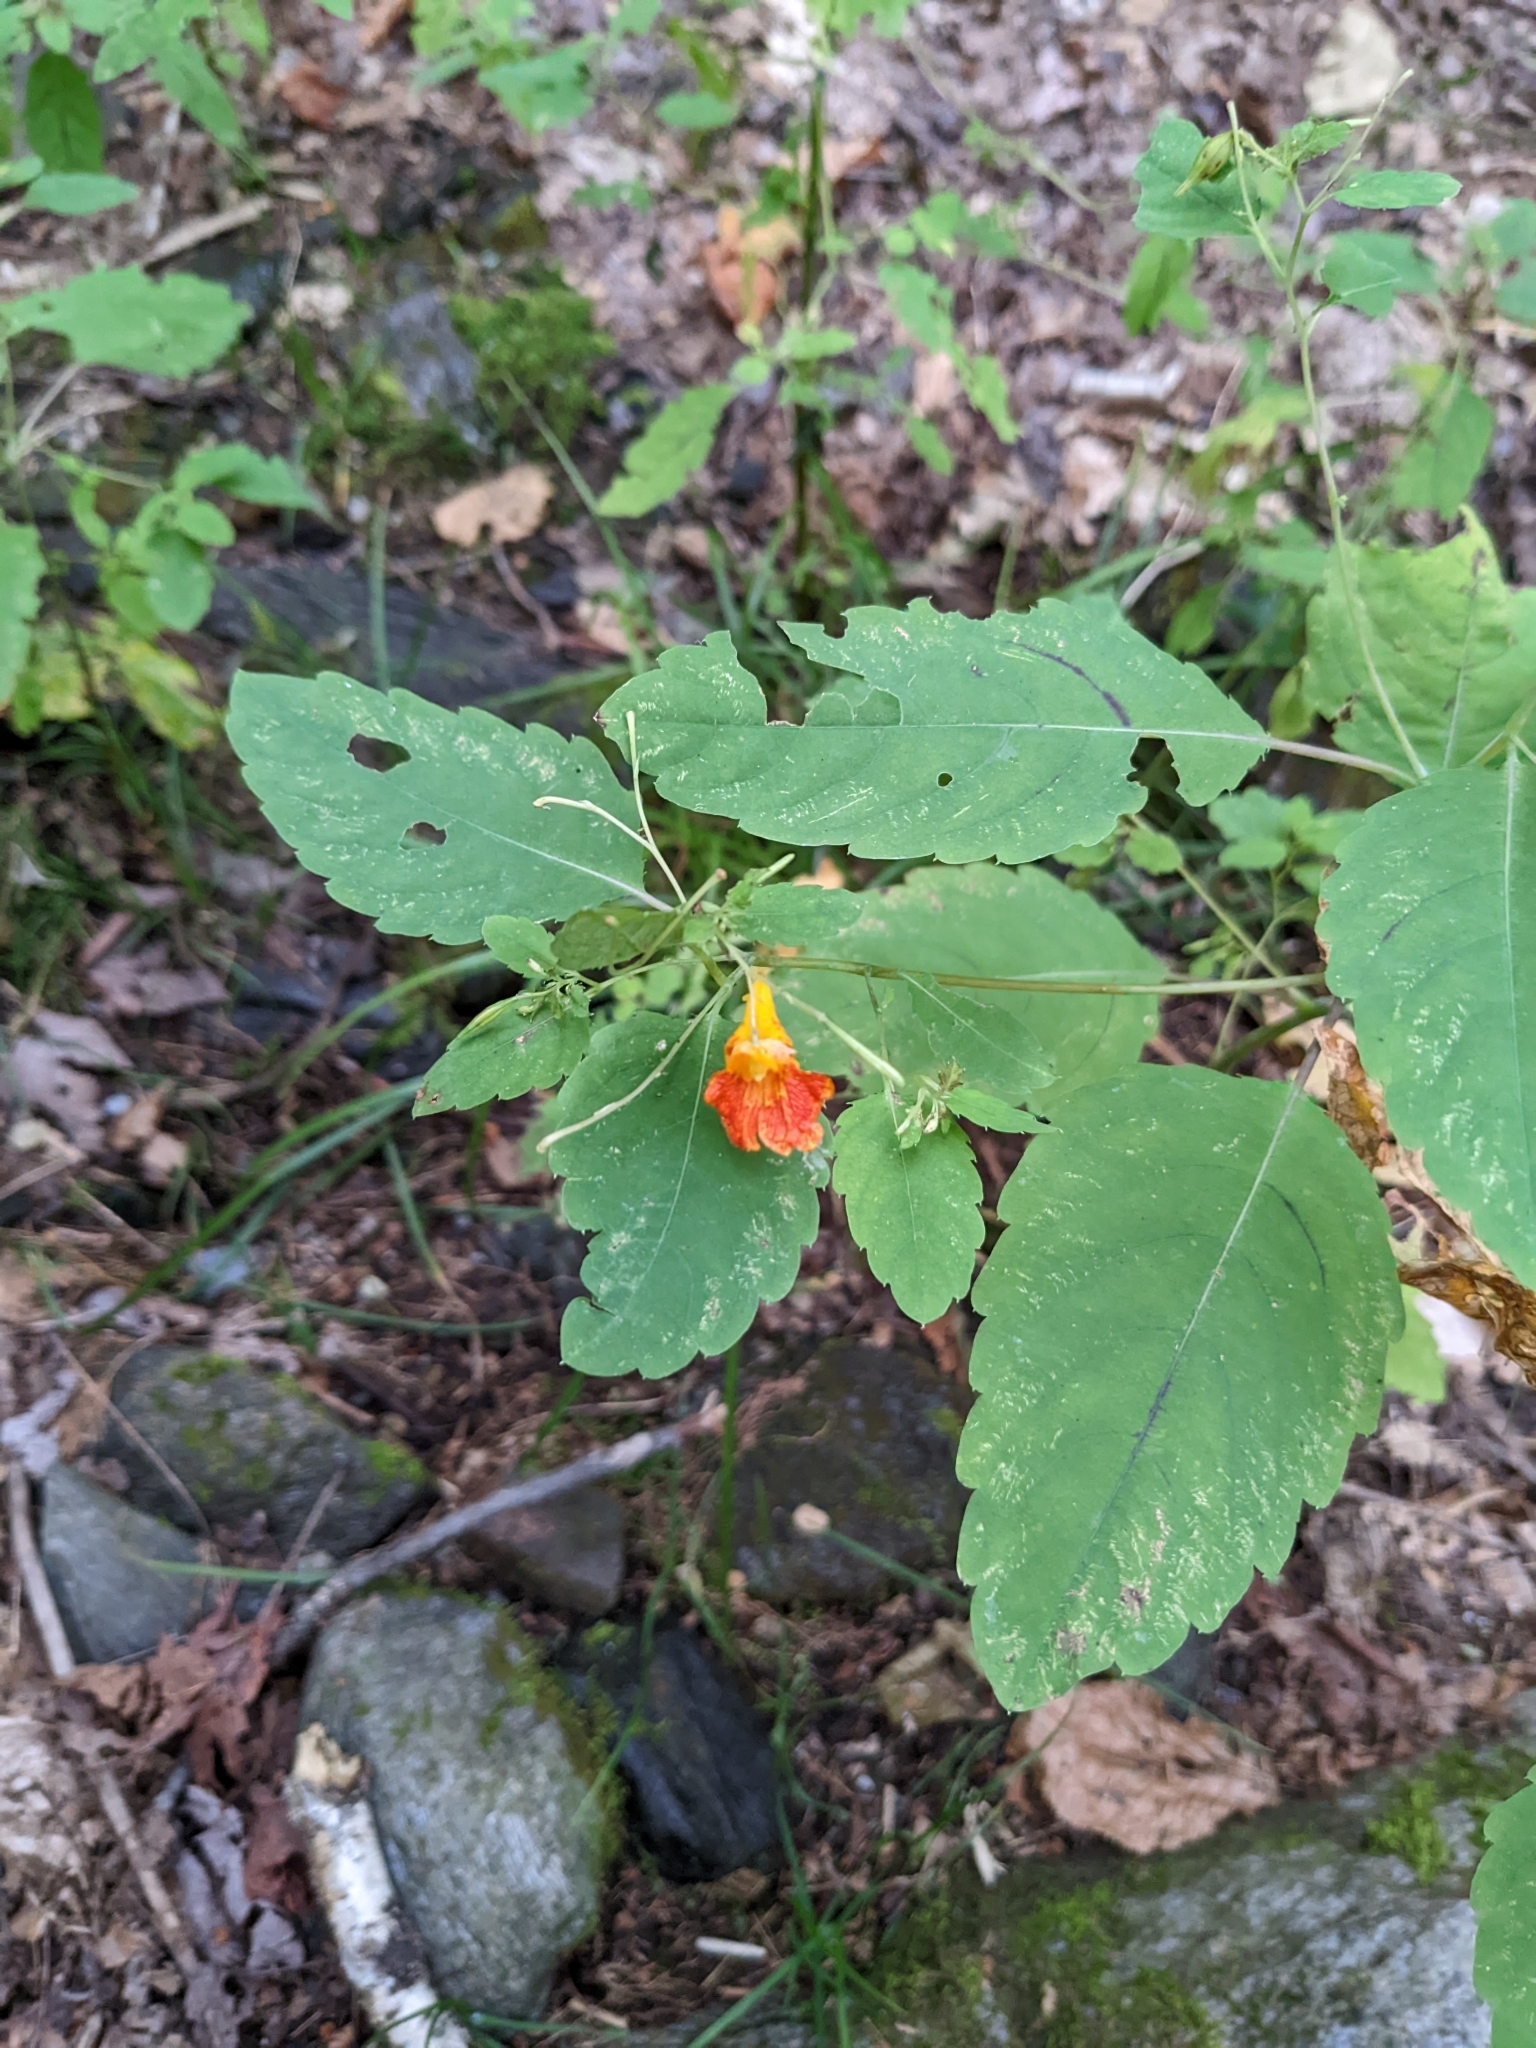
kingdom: Plantae
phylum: Tracheophyta
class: Magnoliopsida
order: Ericales
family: Balsaminaceae
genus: Impatiens
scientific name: Impatiens capensis
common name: Orange balsam
